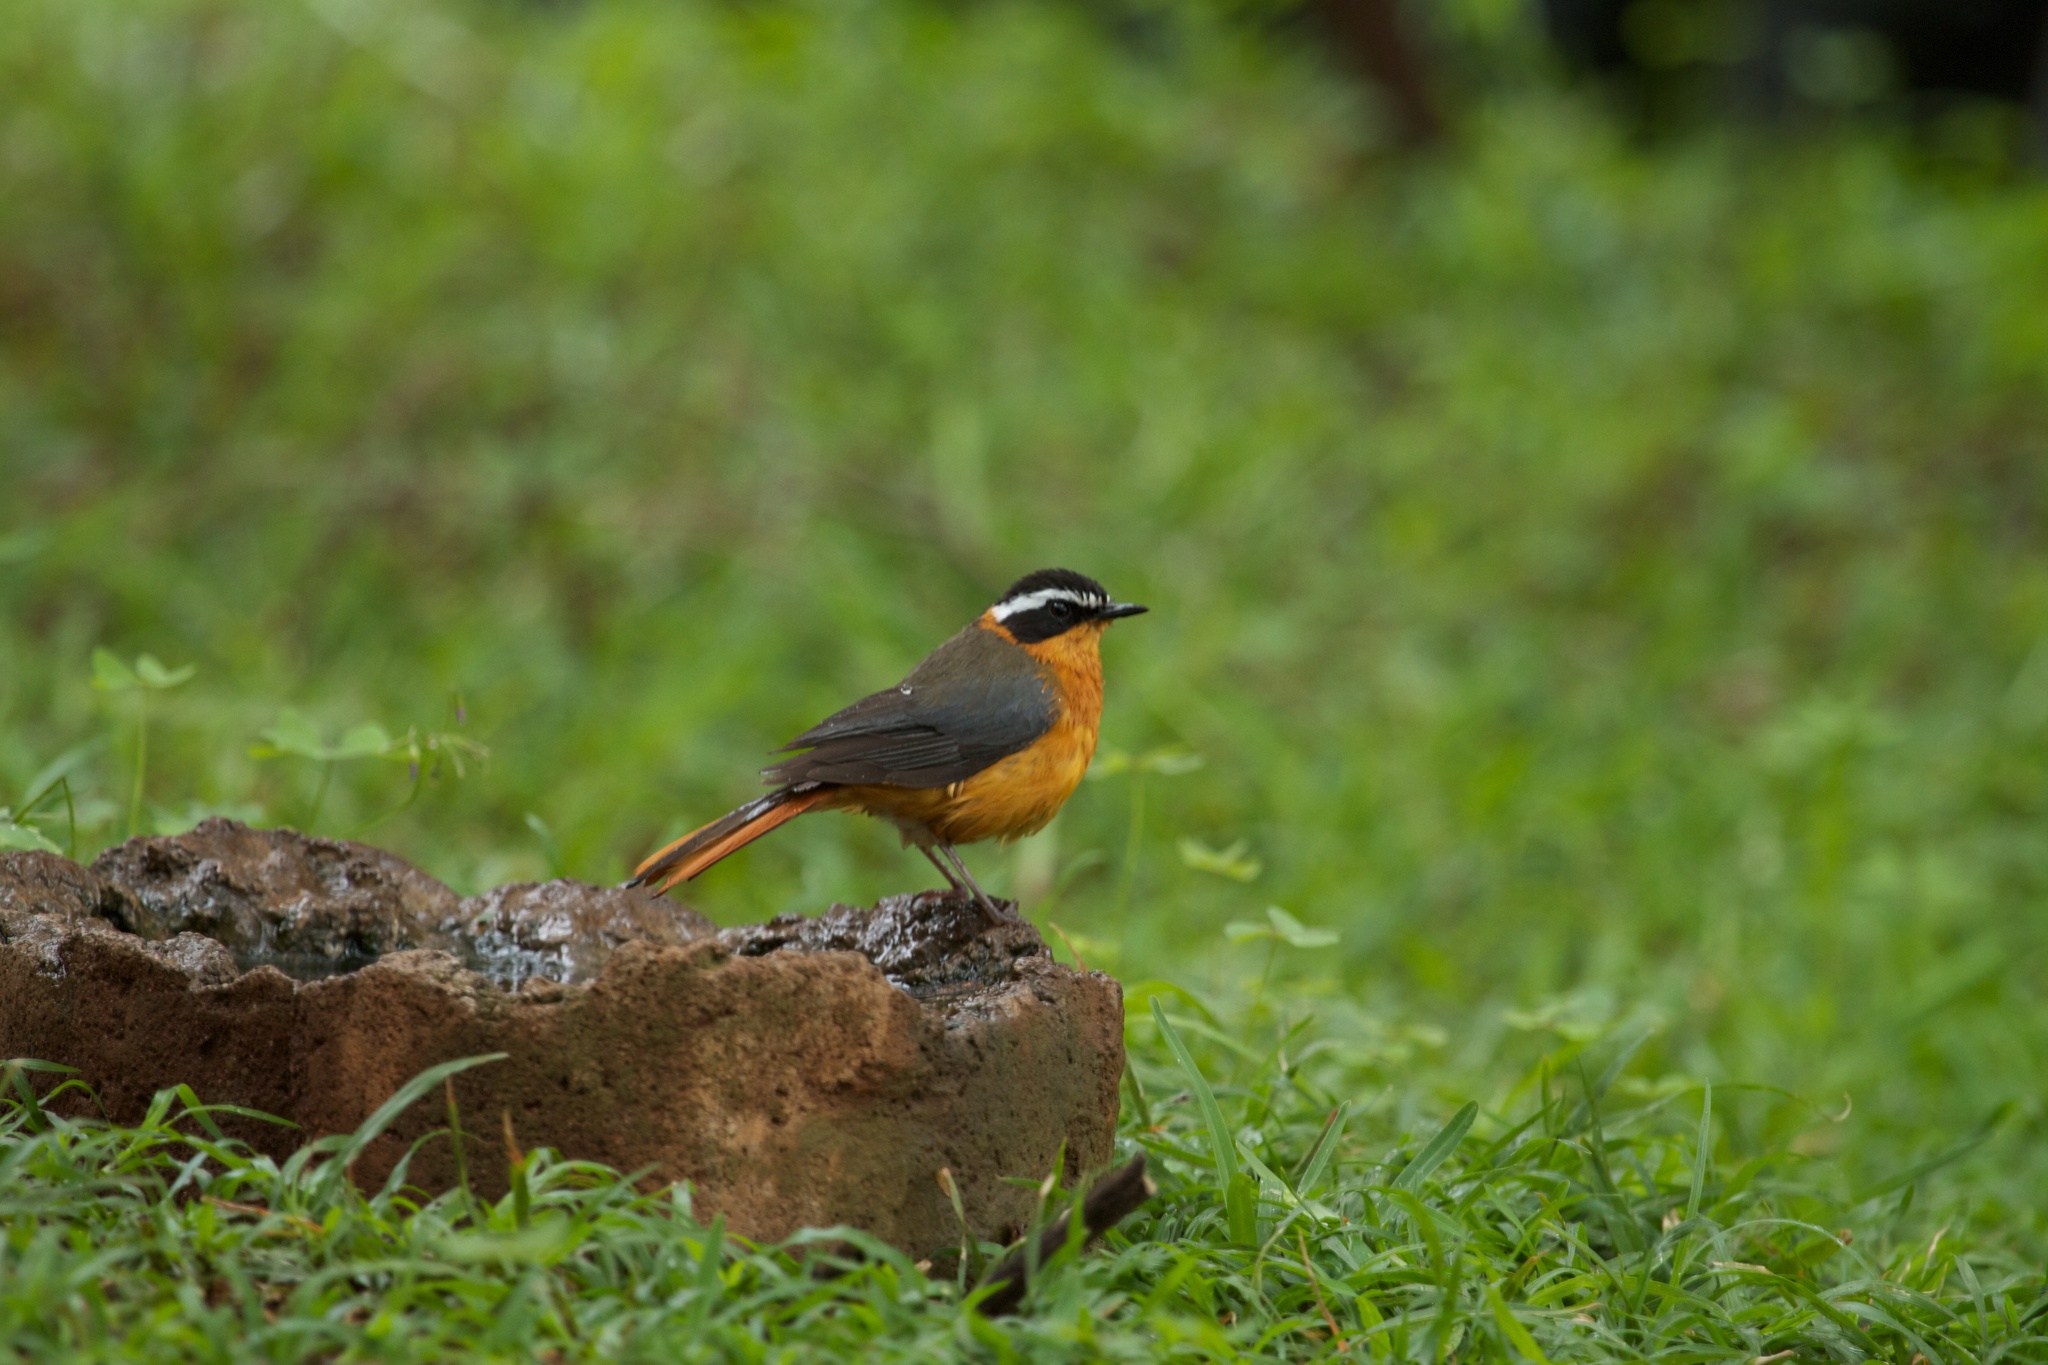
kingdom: Animalia
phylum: Chordata
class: Aves
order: Passeriformes
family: Muscicapidae
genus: Cossypha
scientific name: Cossypha heuglini
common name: White-browed robin-chat
